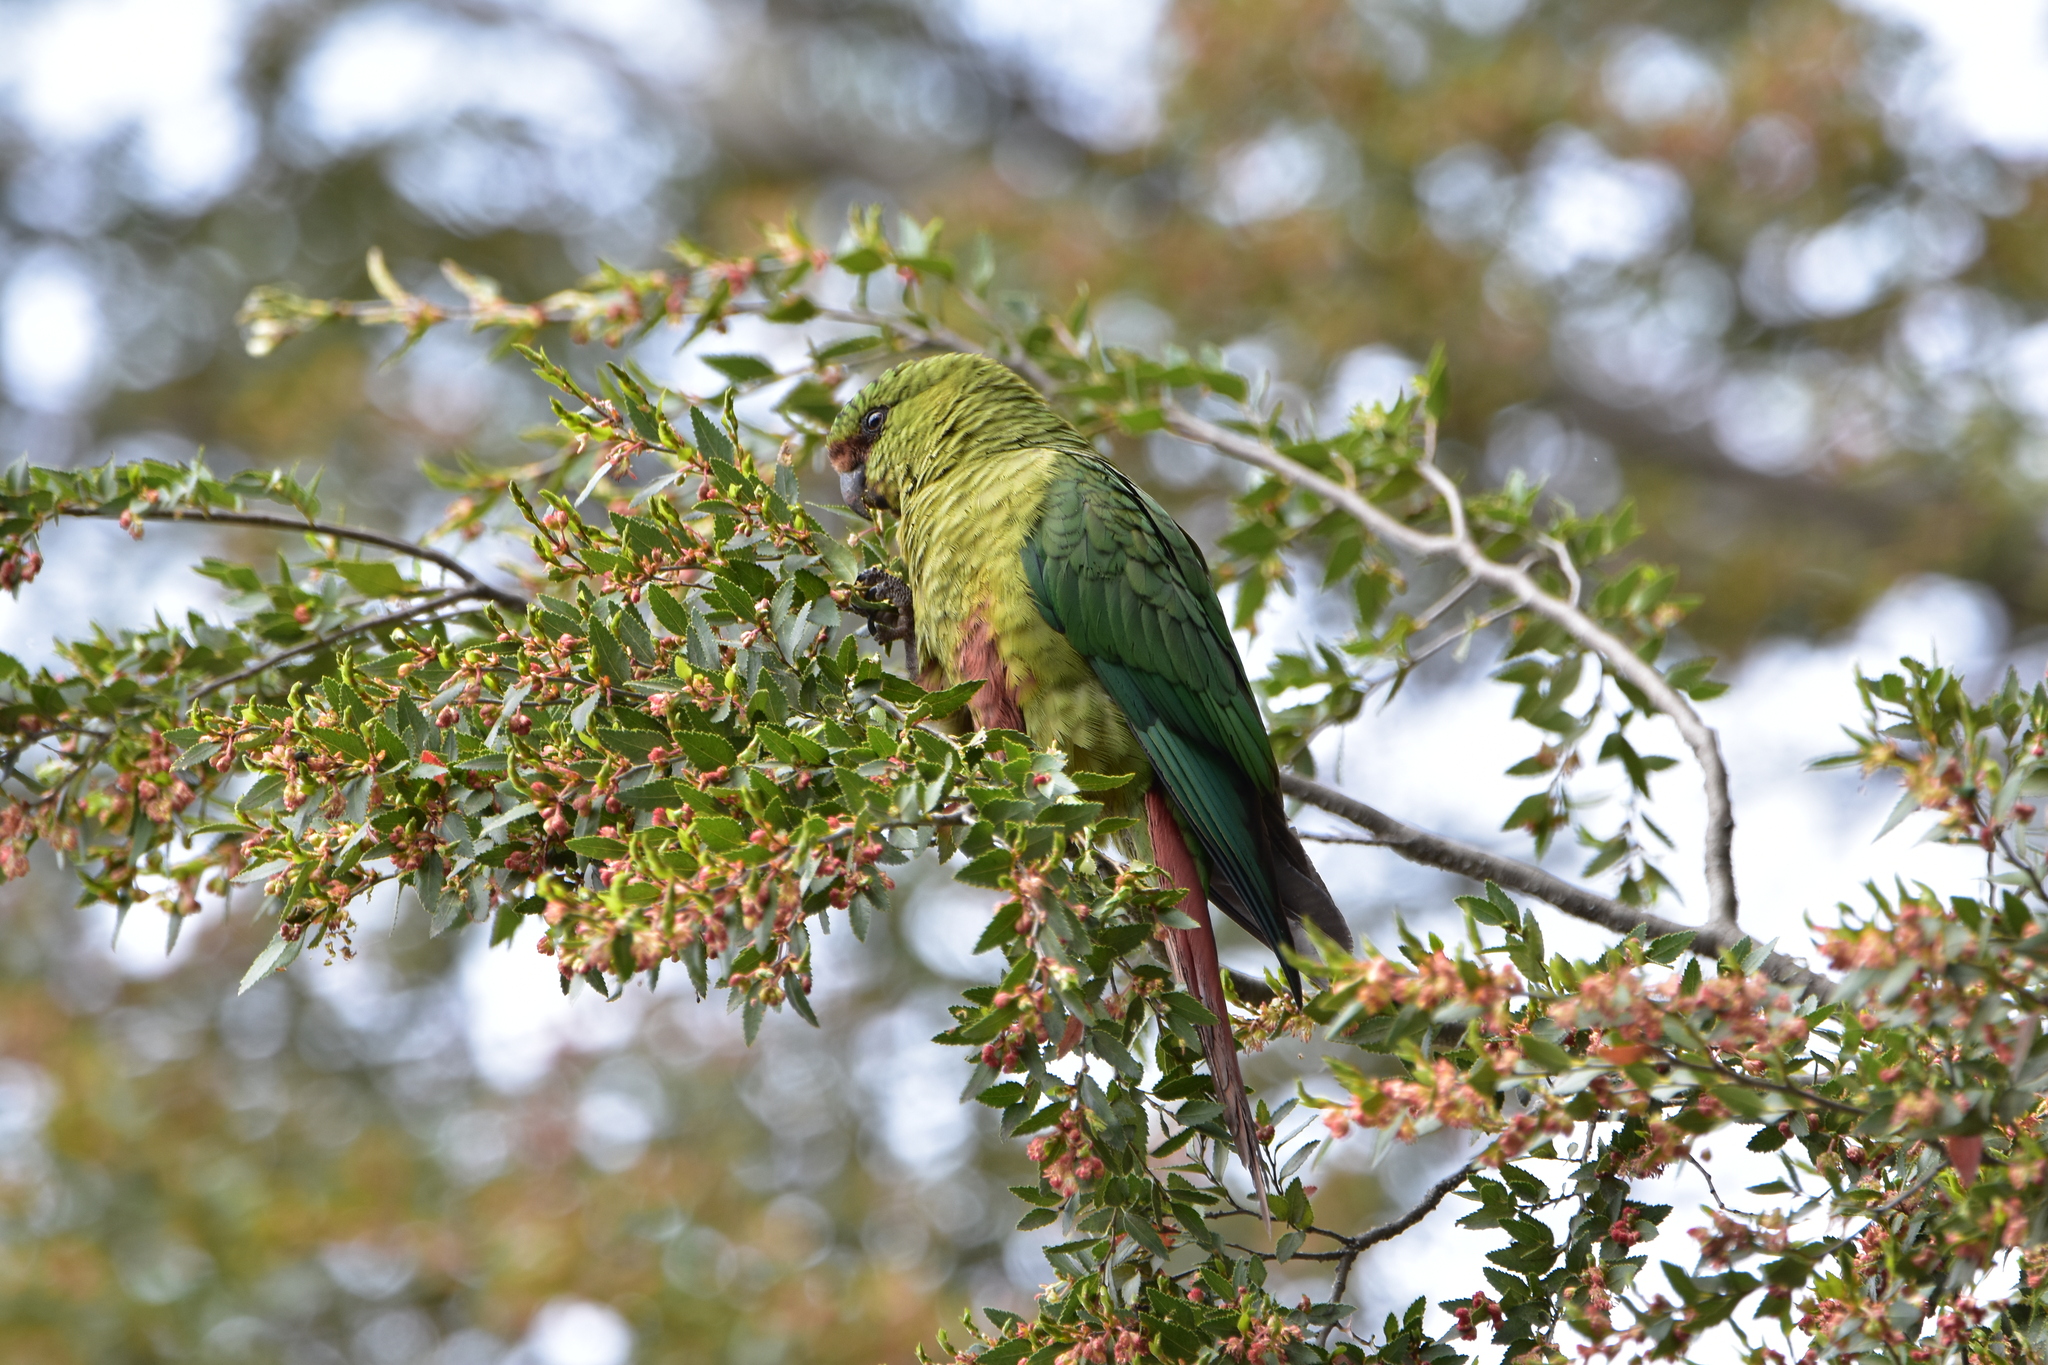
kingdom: Animalia
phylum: Chordata
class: Aves
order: Psittaciformes
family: Psittacidae
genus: Enicognathus
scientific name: Enicognathus ferrugineus
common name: Austral parakeet
